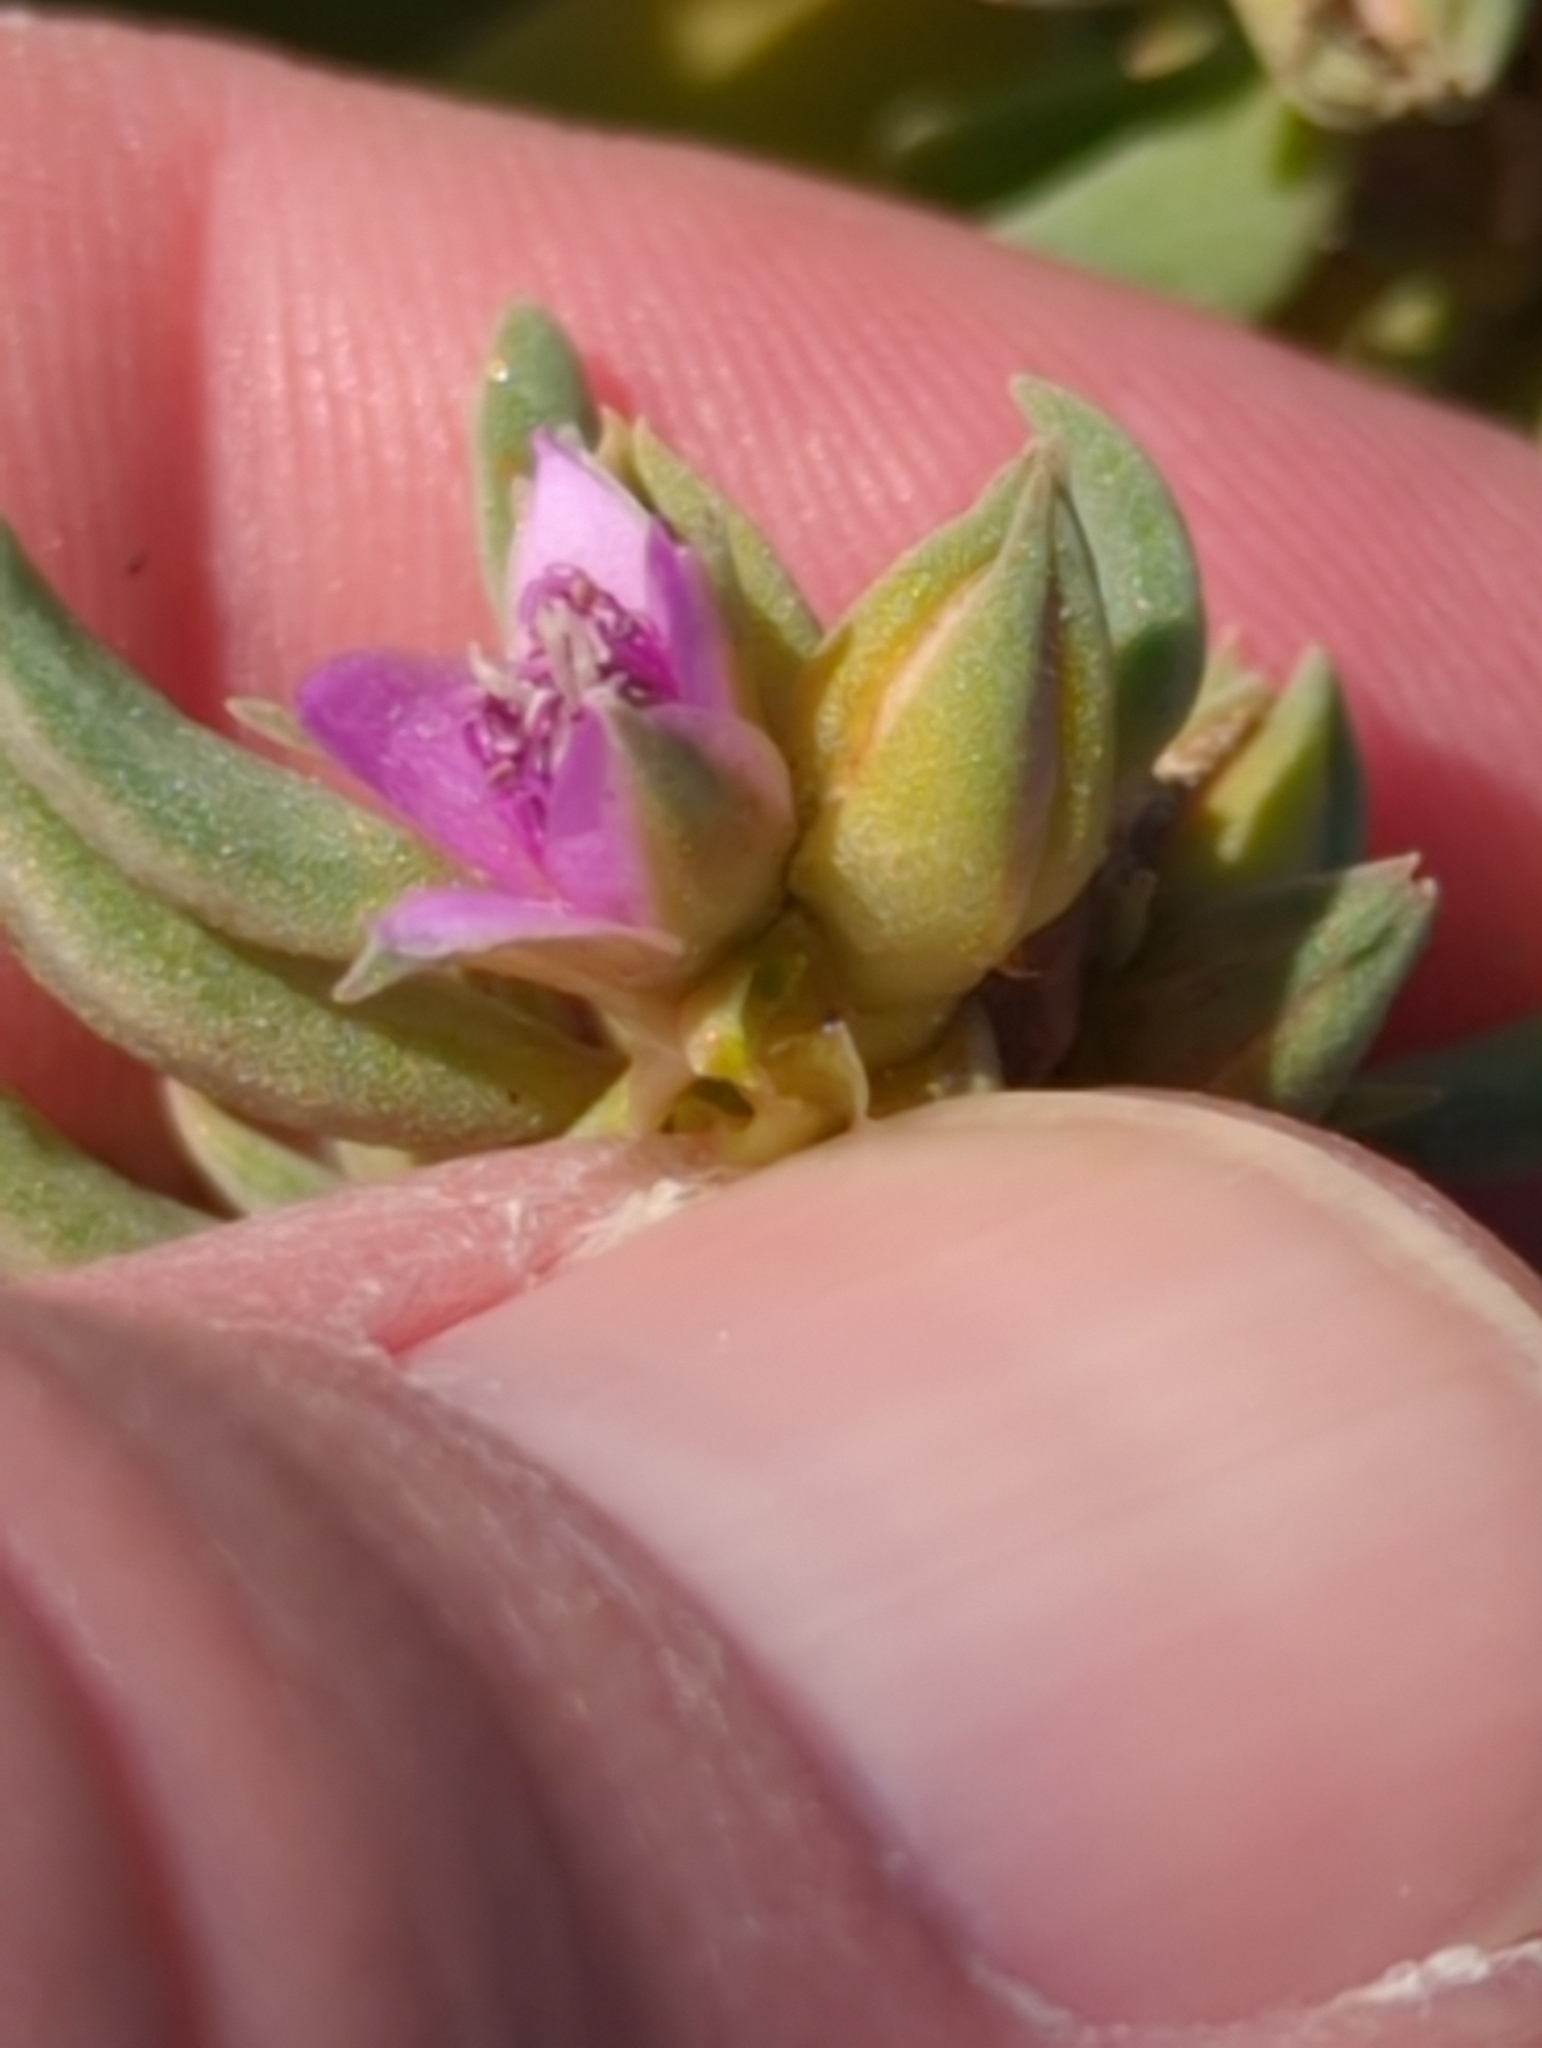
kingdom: Plantae
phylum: Tracheophyta
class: Magnoliopsida
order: Caryophyllales
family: Aizoaceae
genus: Sesuvium
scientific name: Sesuvium revolutifolium
